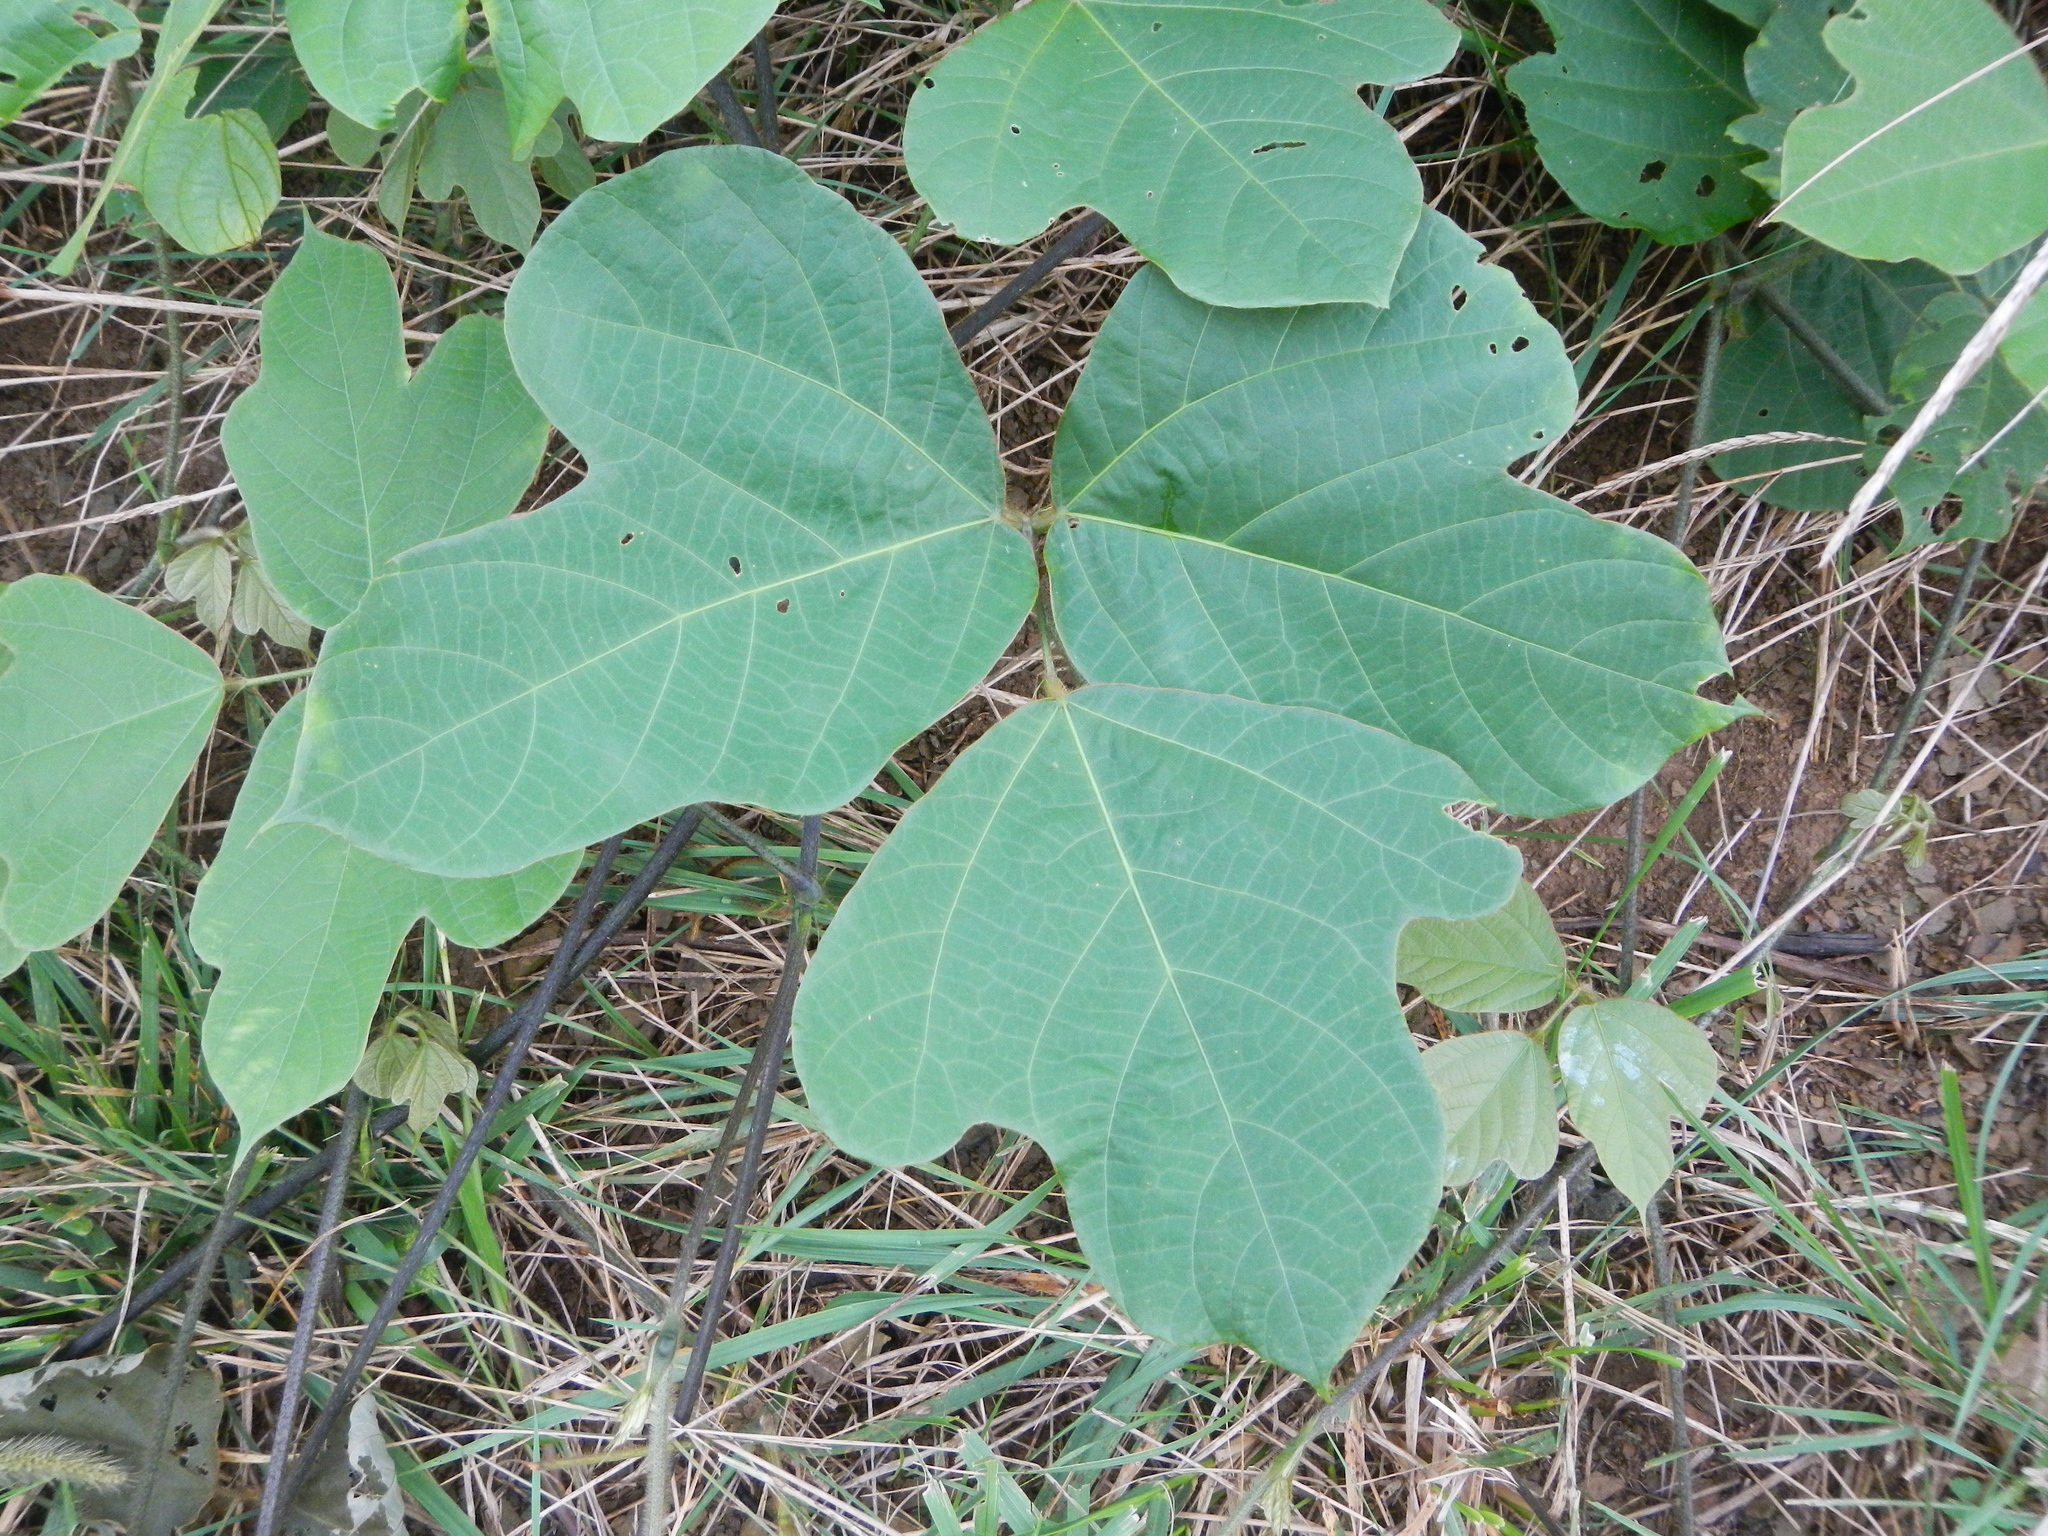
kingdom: Plantae
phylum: Tracheophyta
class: Magnoliopsida
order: Fabales
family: Fabaceae
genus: Pueraria
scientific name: Pueraria montana
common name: Kudzu
